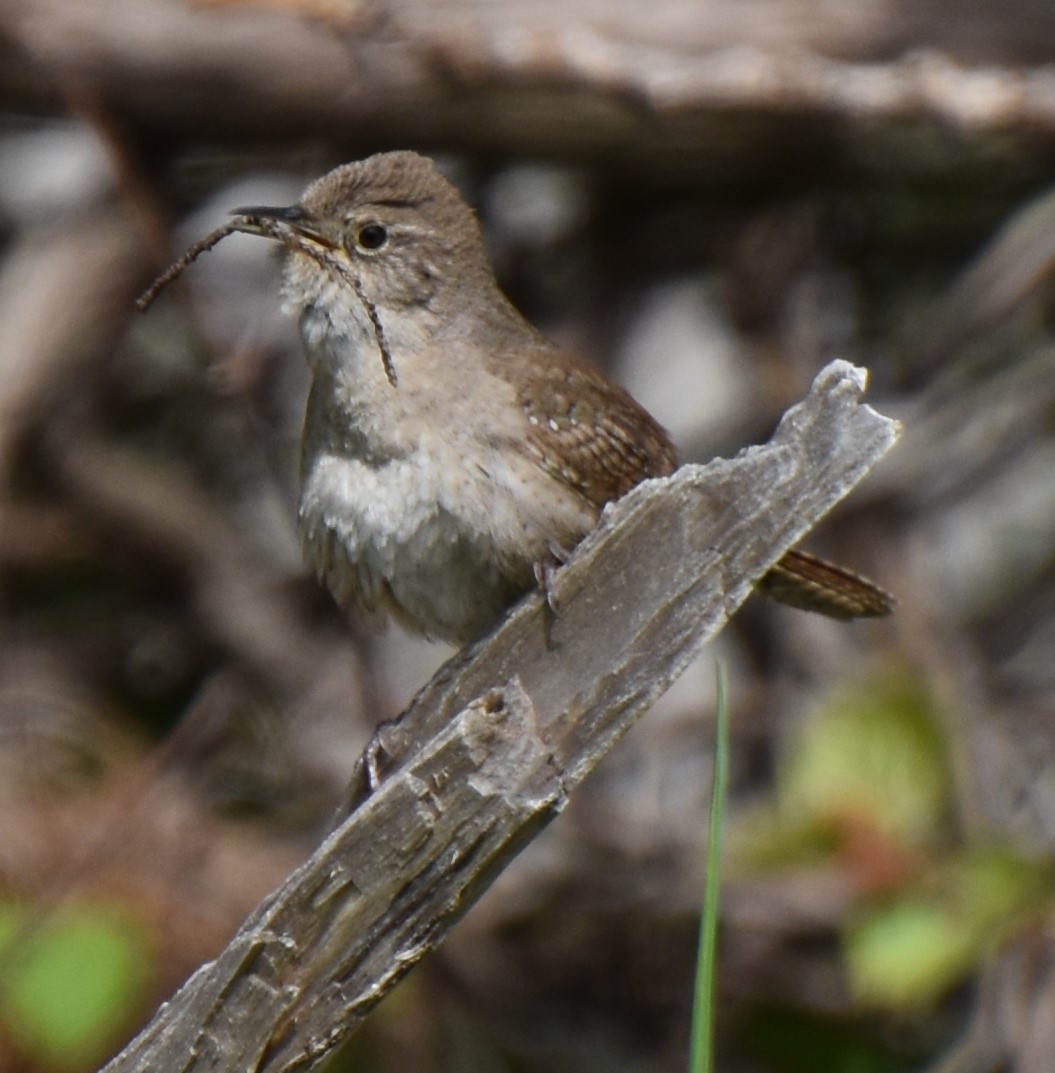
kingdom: Animalia
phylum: Chordata
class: Aves
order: Passeriformes
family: Troglodytidae
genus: Troglodytes
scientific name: Troglodytes aedon
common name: House wren
